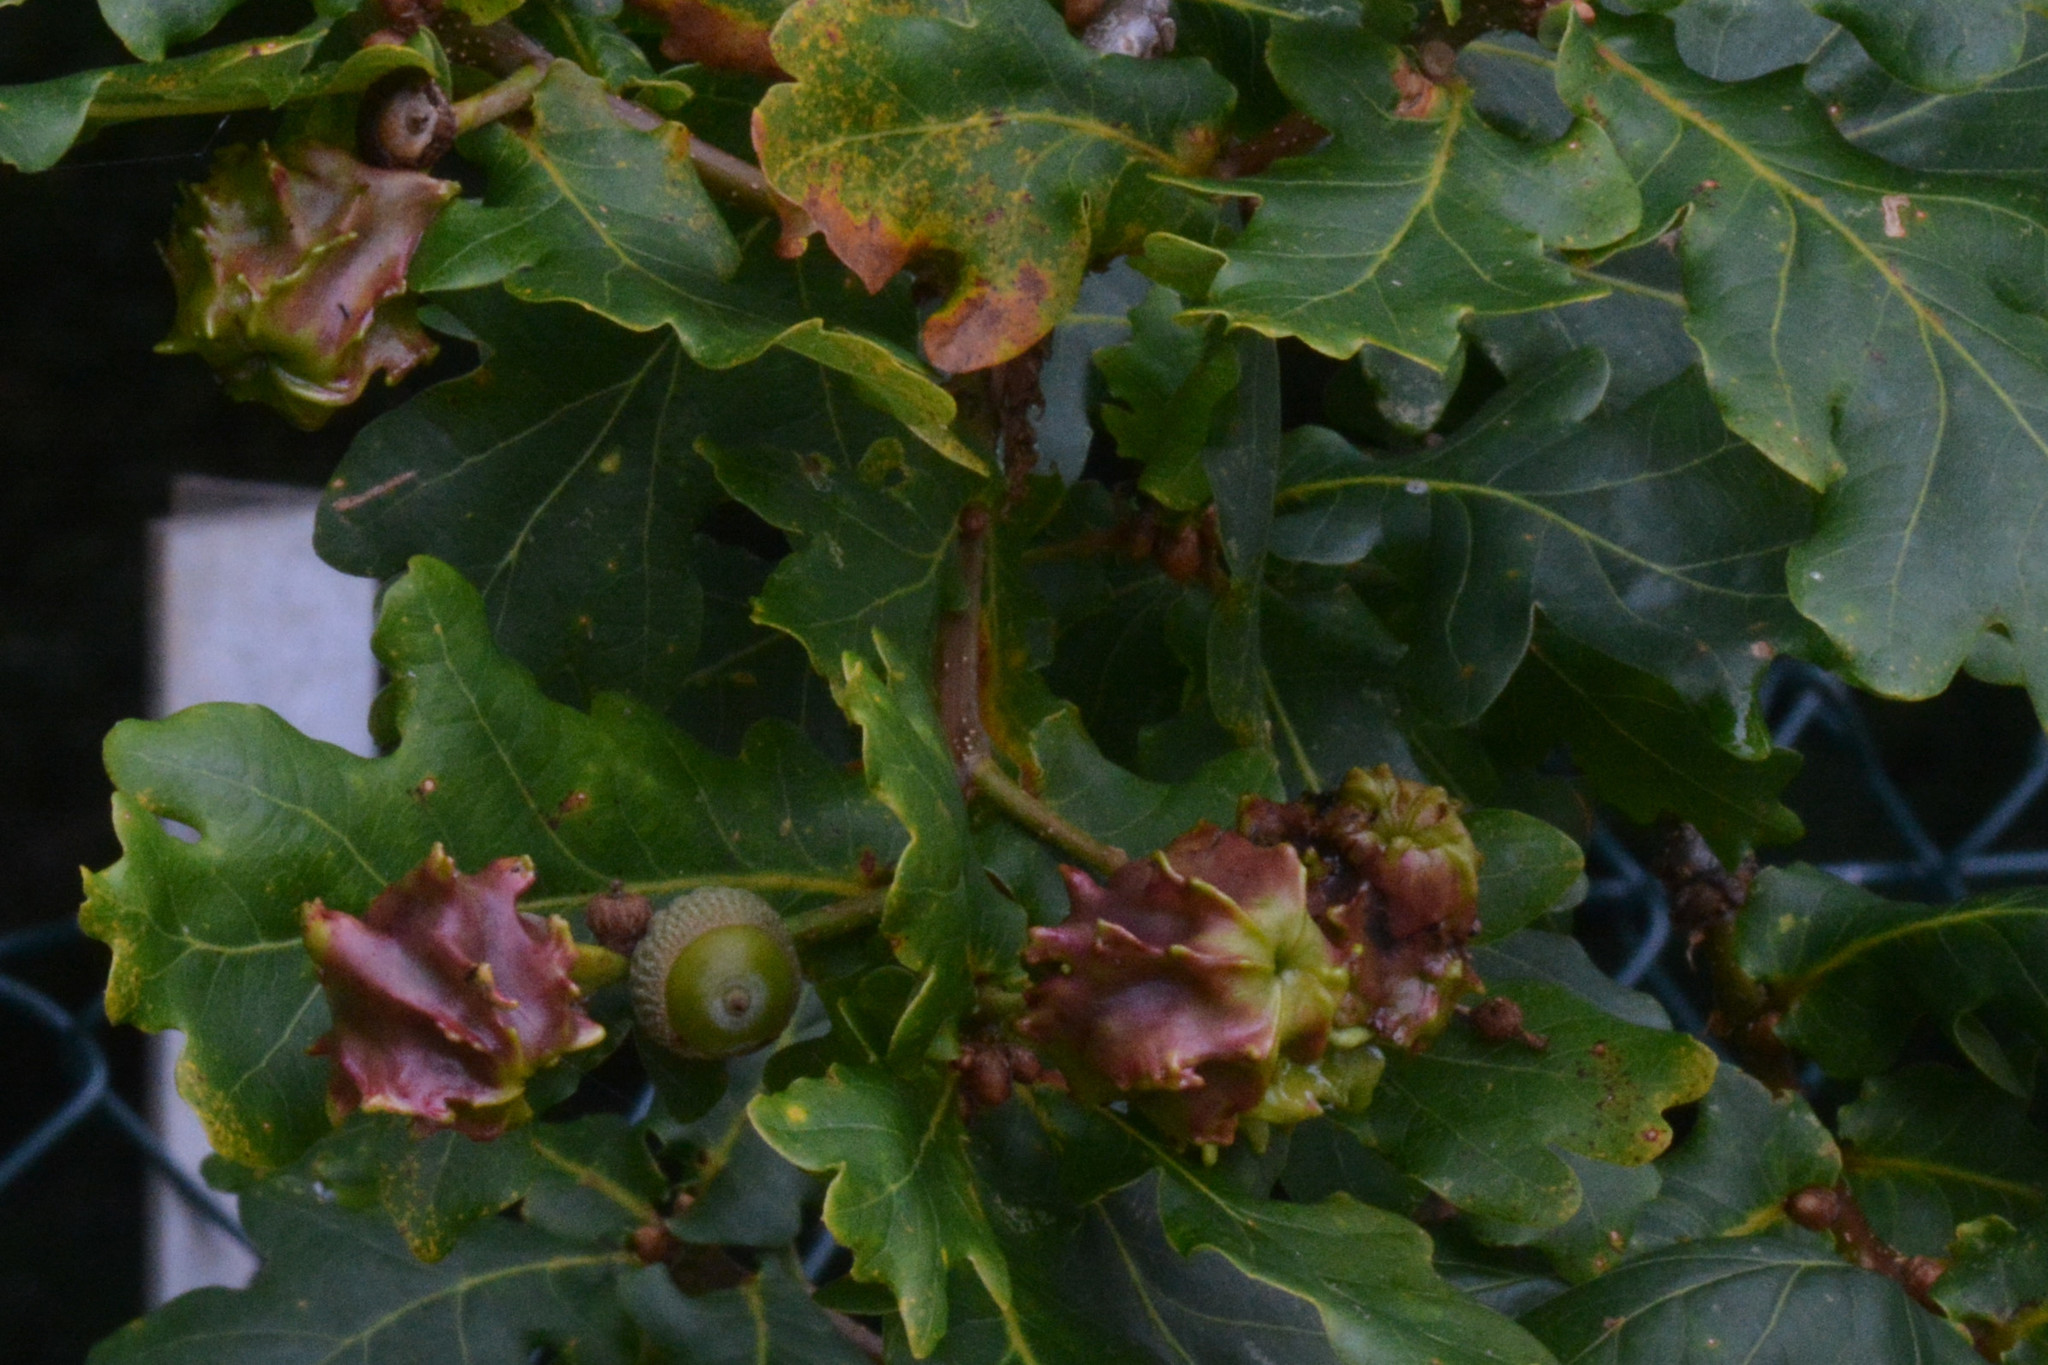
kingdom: Animalia
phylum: Arthropoda
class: Insecta
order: Hymenoptera
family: Cynipidae
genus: Andricus
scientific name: Andricus quercuscalicis
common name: Knopper gall
